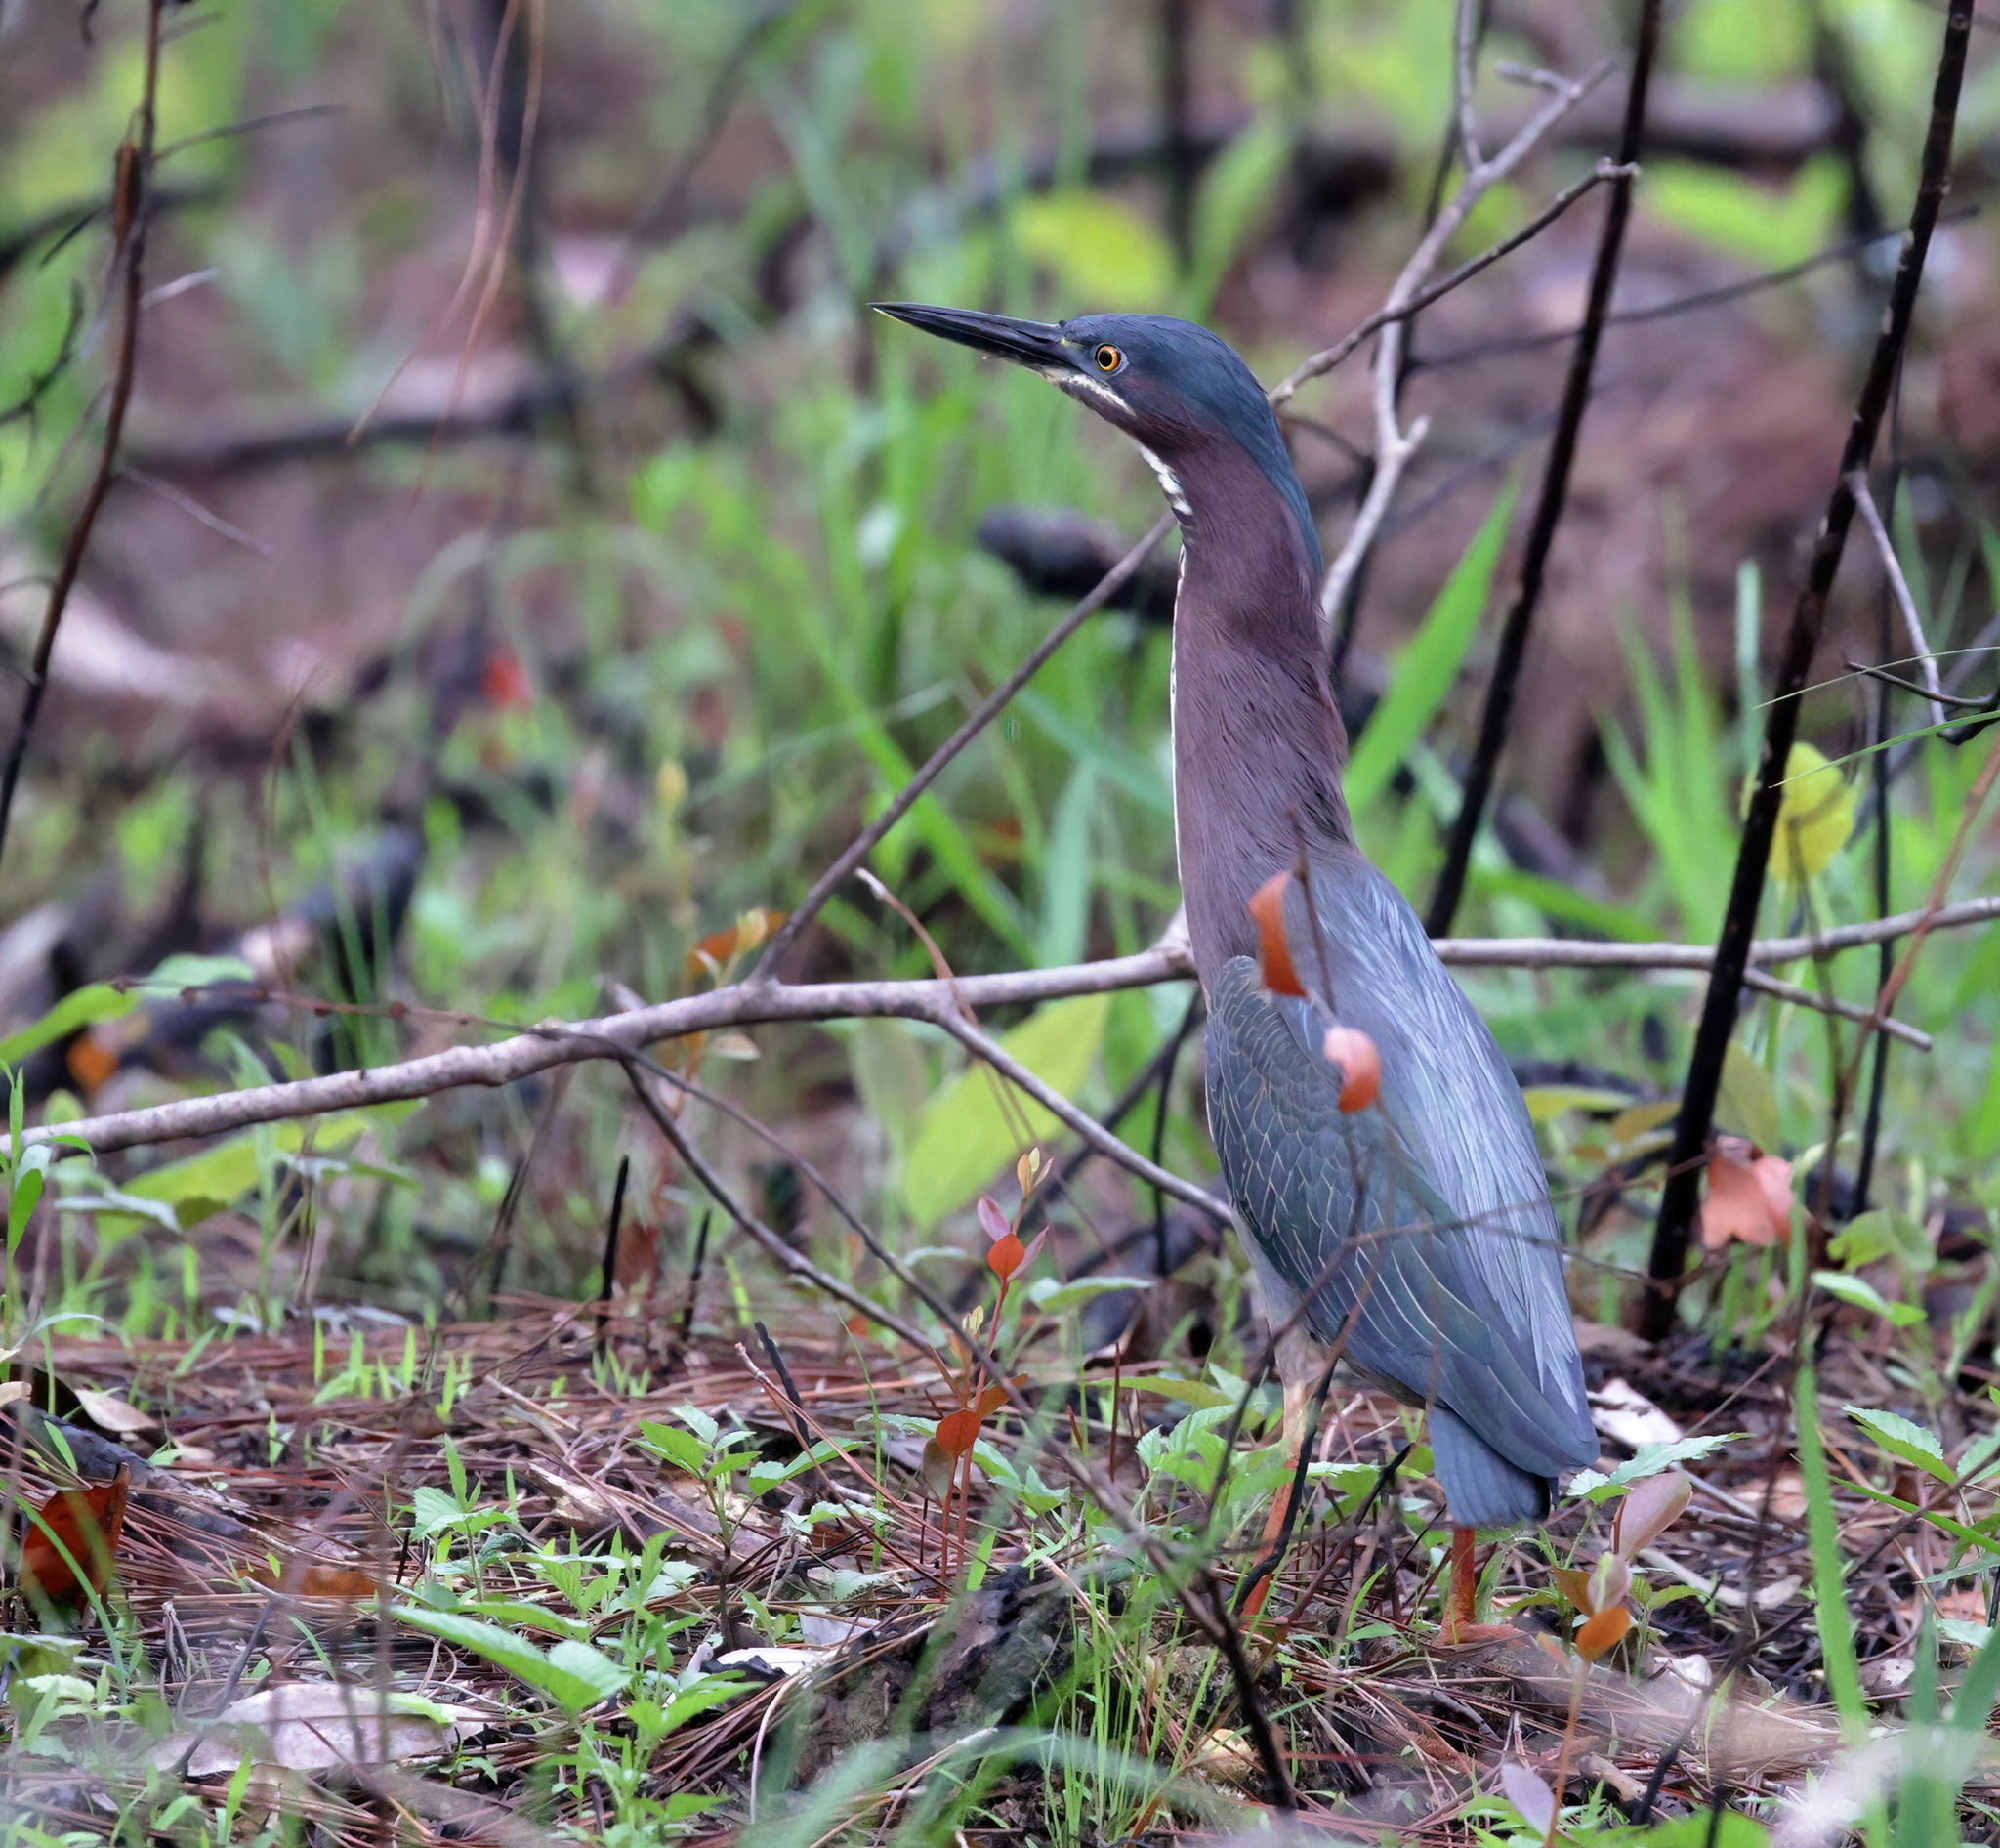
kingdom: Animalia
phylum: Chordata
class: Aves
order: Pelecaniformes
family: Ardeidae
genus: Butorides
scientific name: Butorides virescens
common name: Green heron
